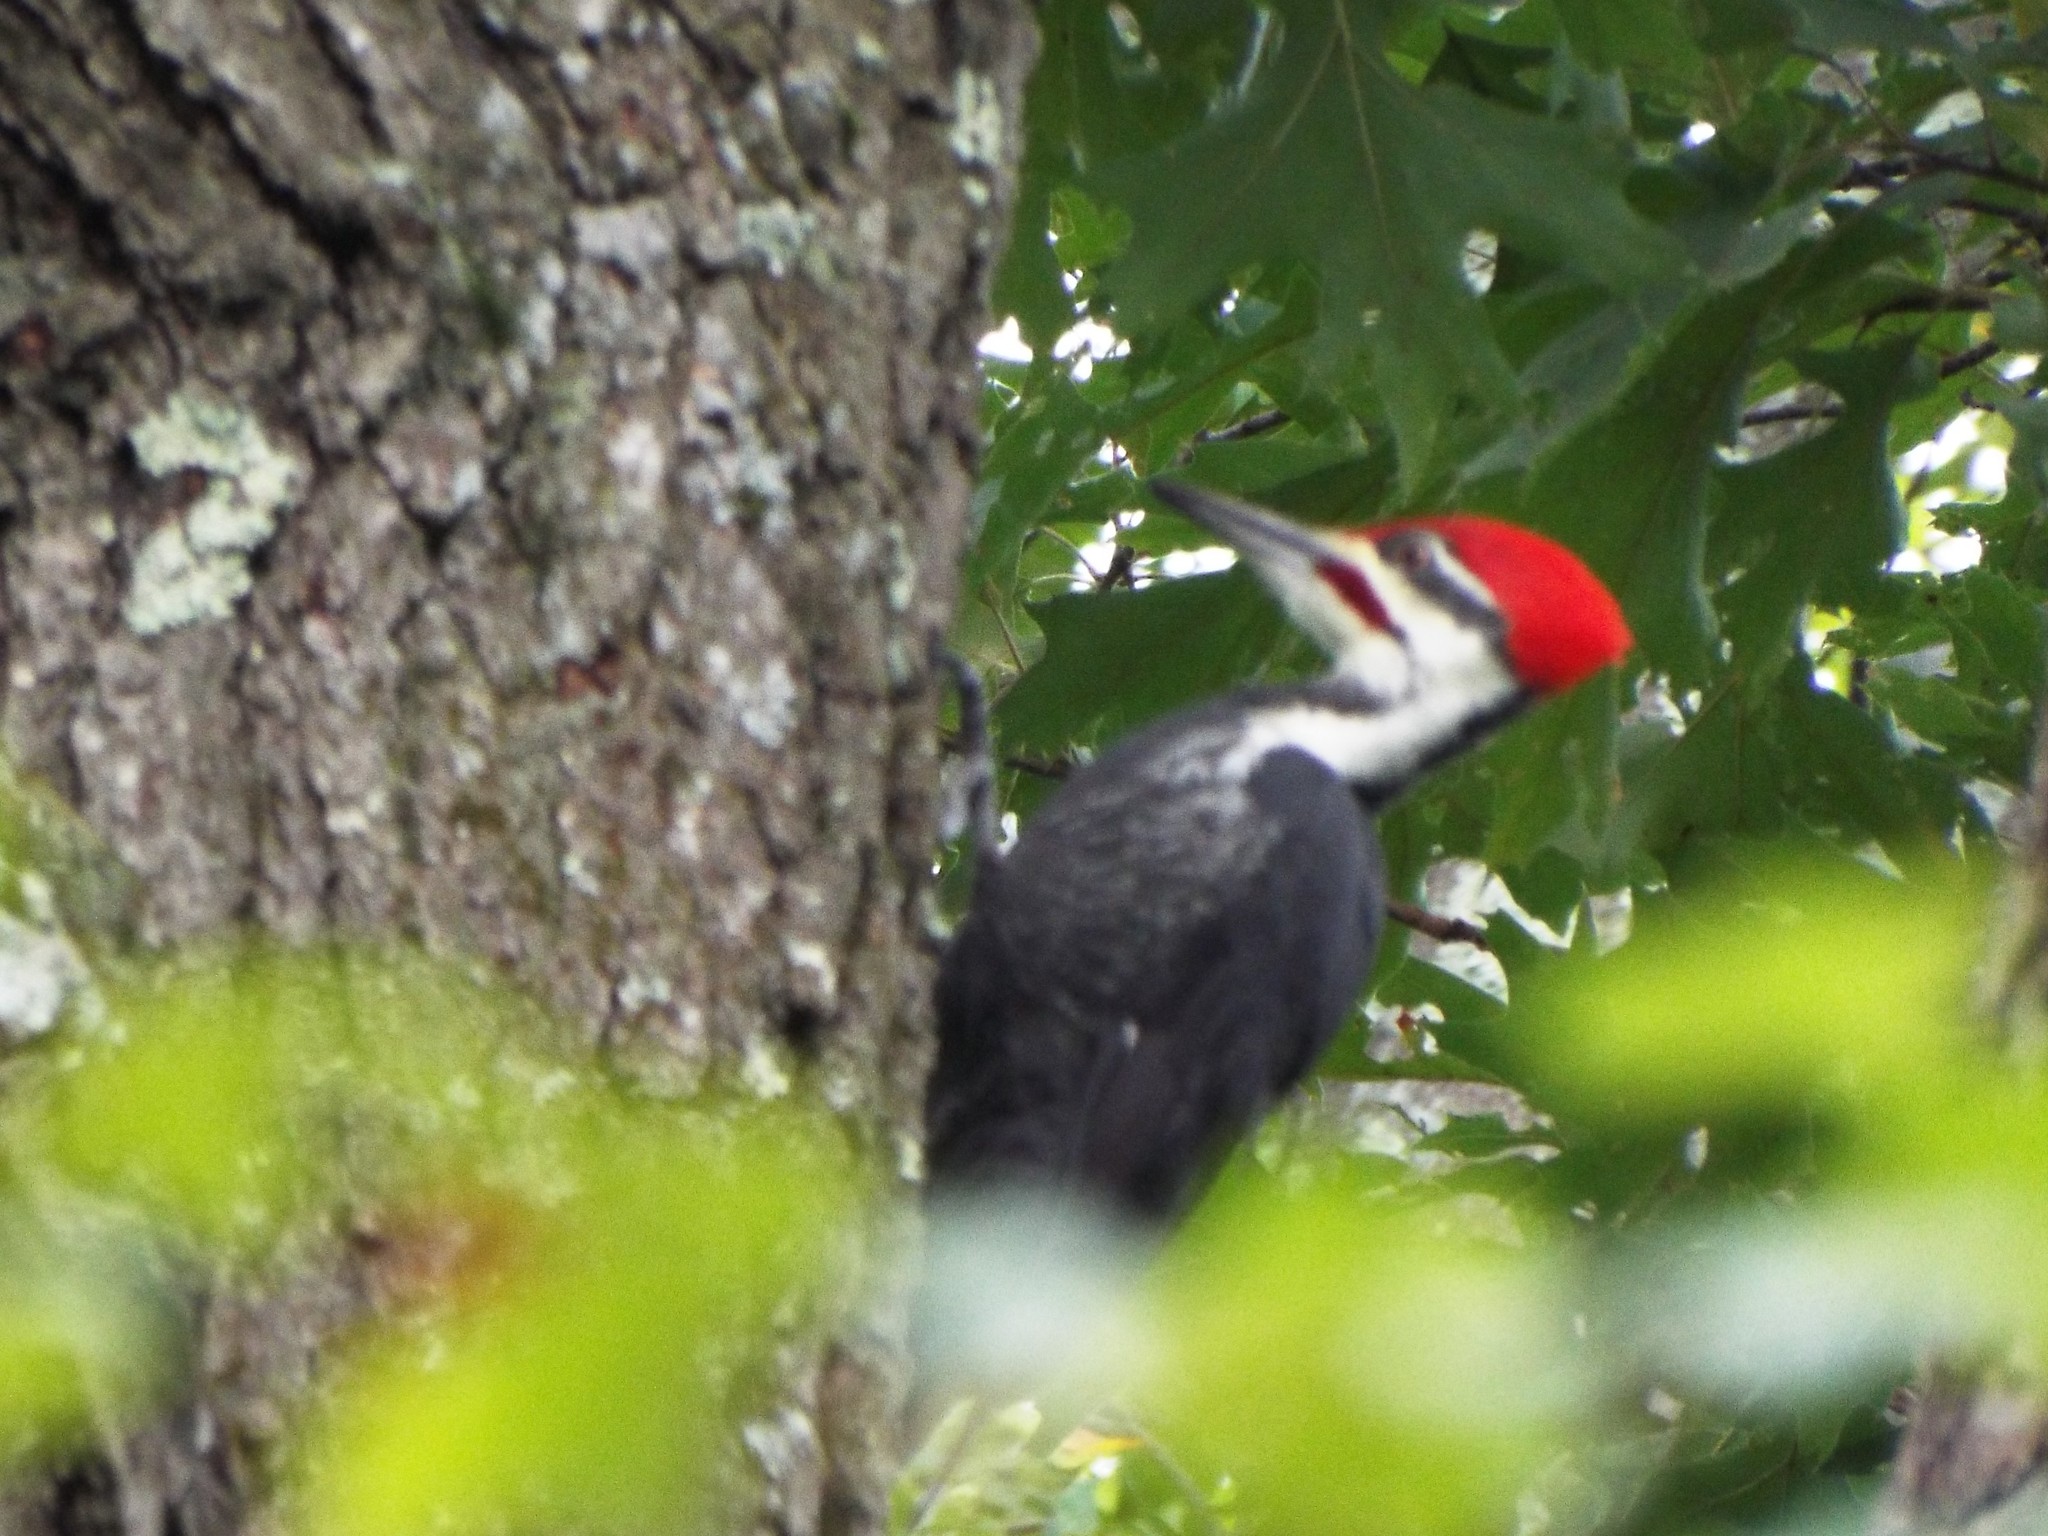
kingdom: Animalia
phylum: Chordata
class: Aves
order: Piciformes
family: Picidae
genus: Dryocopus
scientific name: Dryocopus pileatus
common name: Pileated woodpecker
